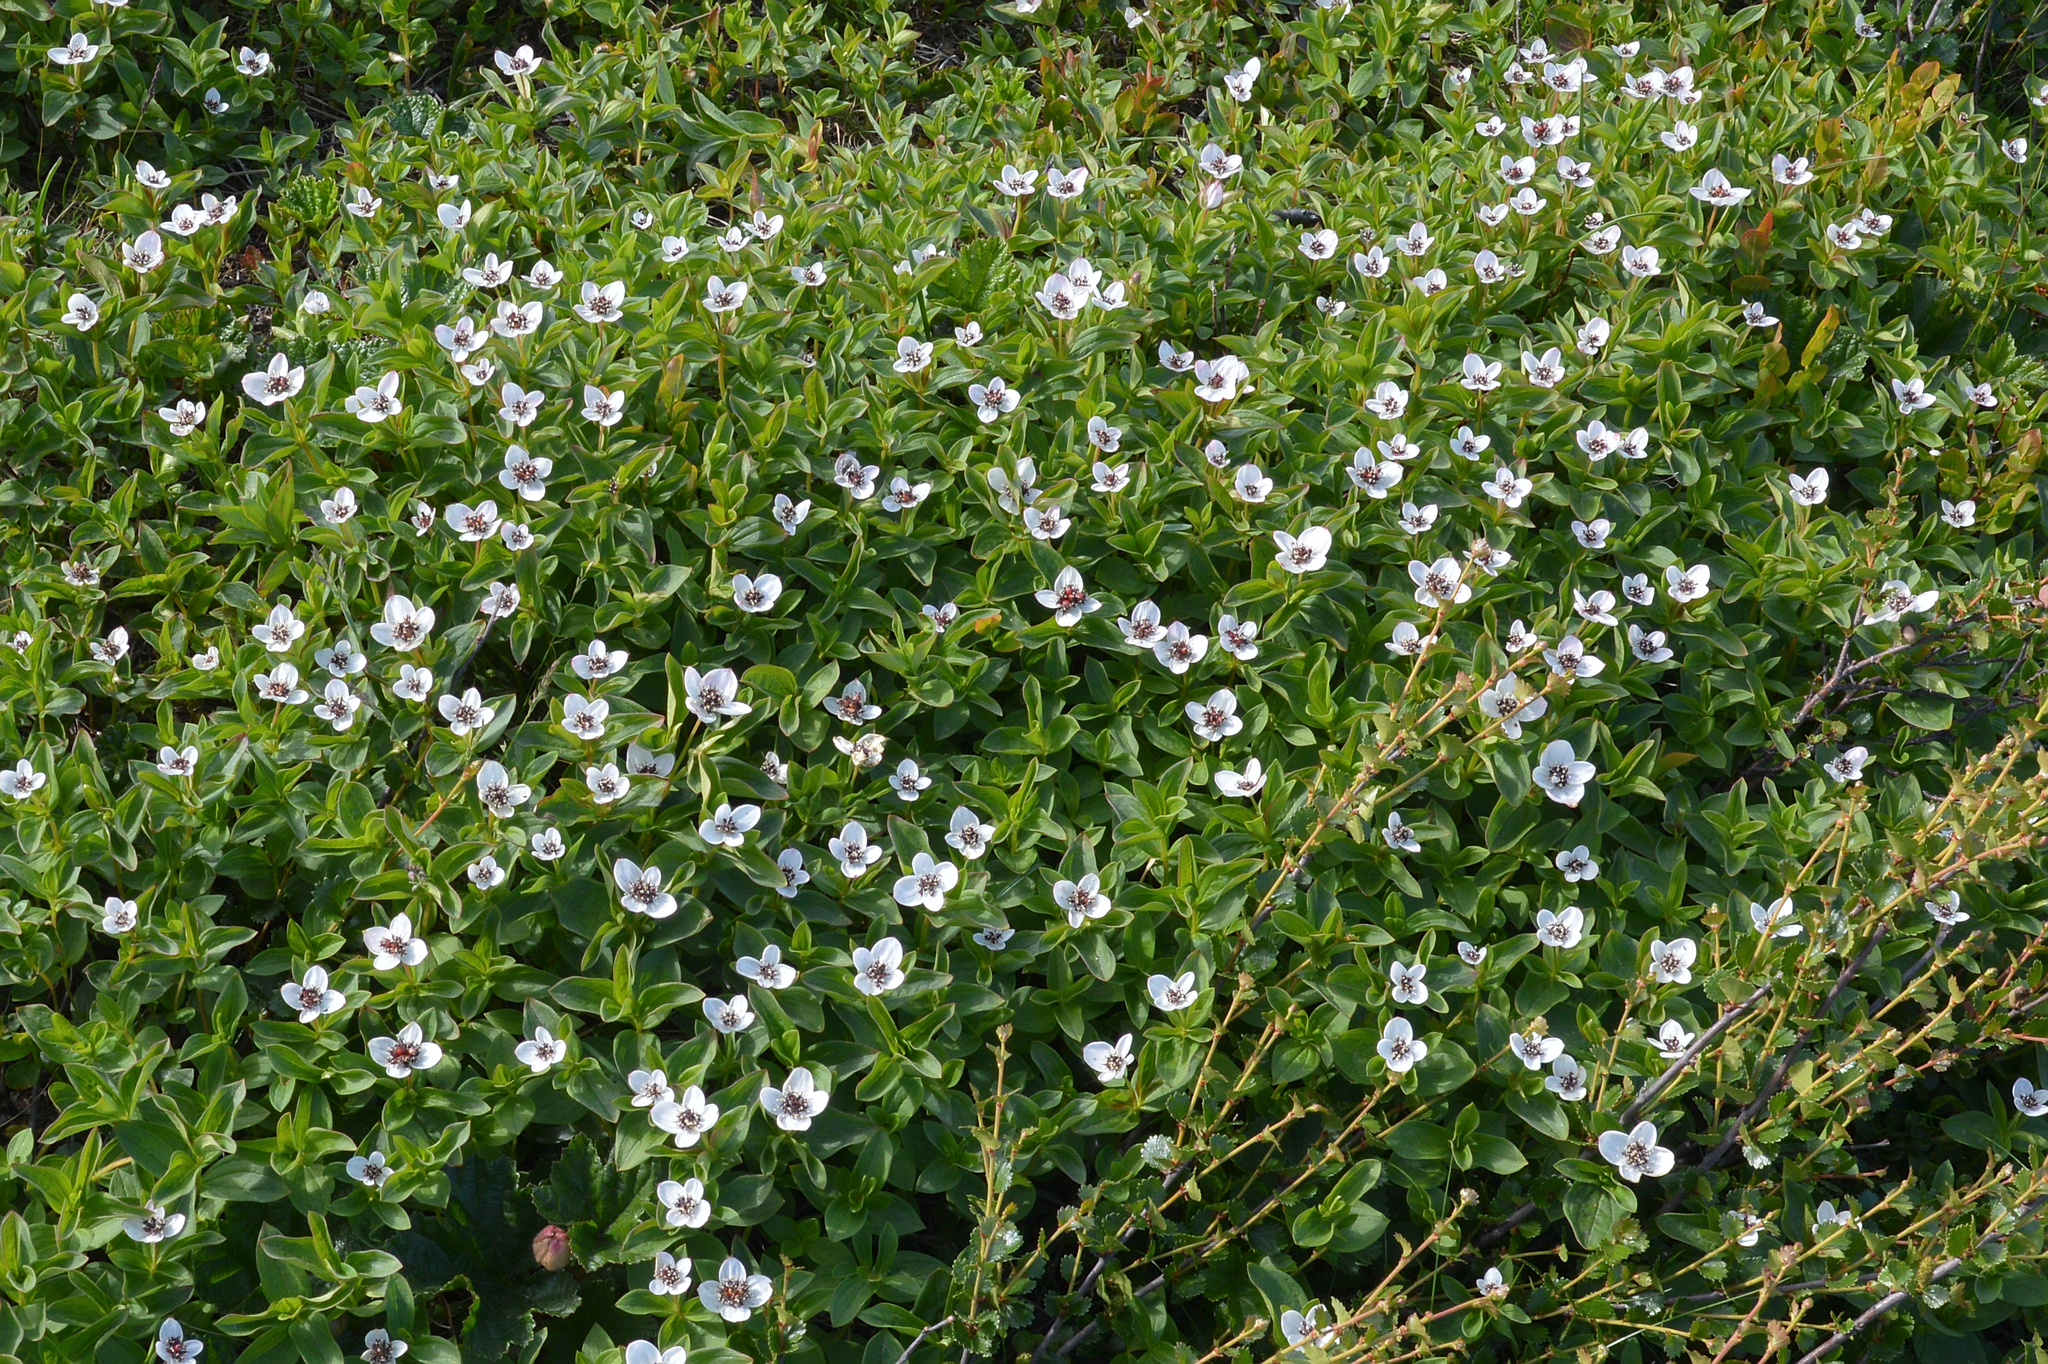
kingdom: Plantae
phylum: Tracheophyta
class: Magnoliopsida
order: Cornales
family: Cornaceae
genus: Cornus
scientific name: Cornus suecica
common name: Dwarf cornel
